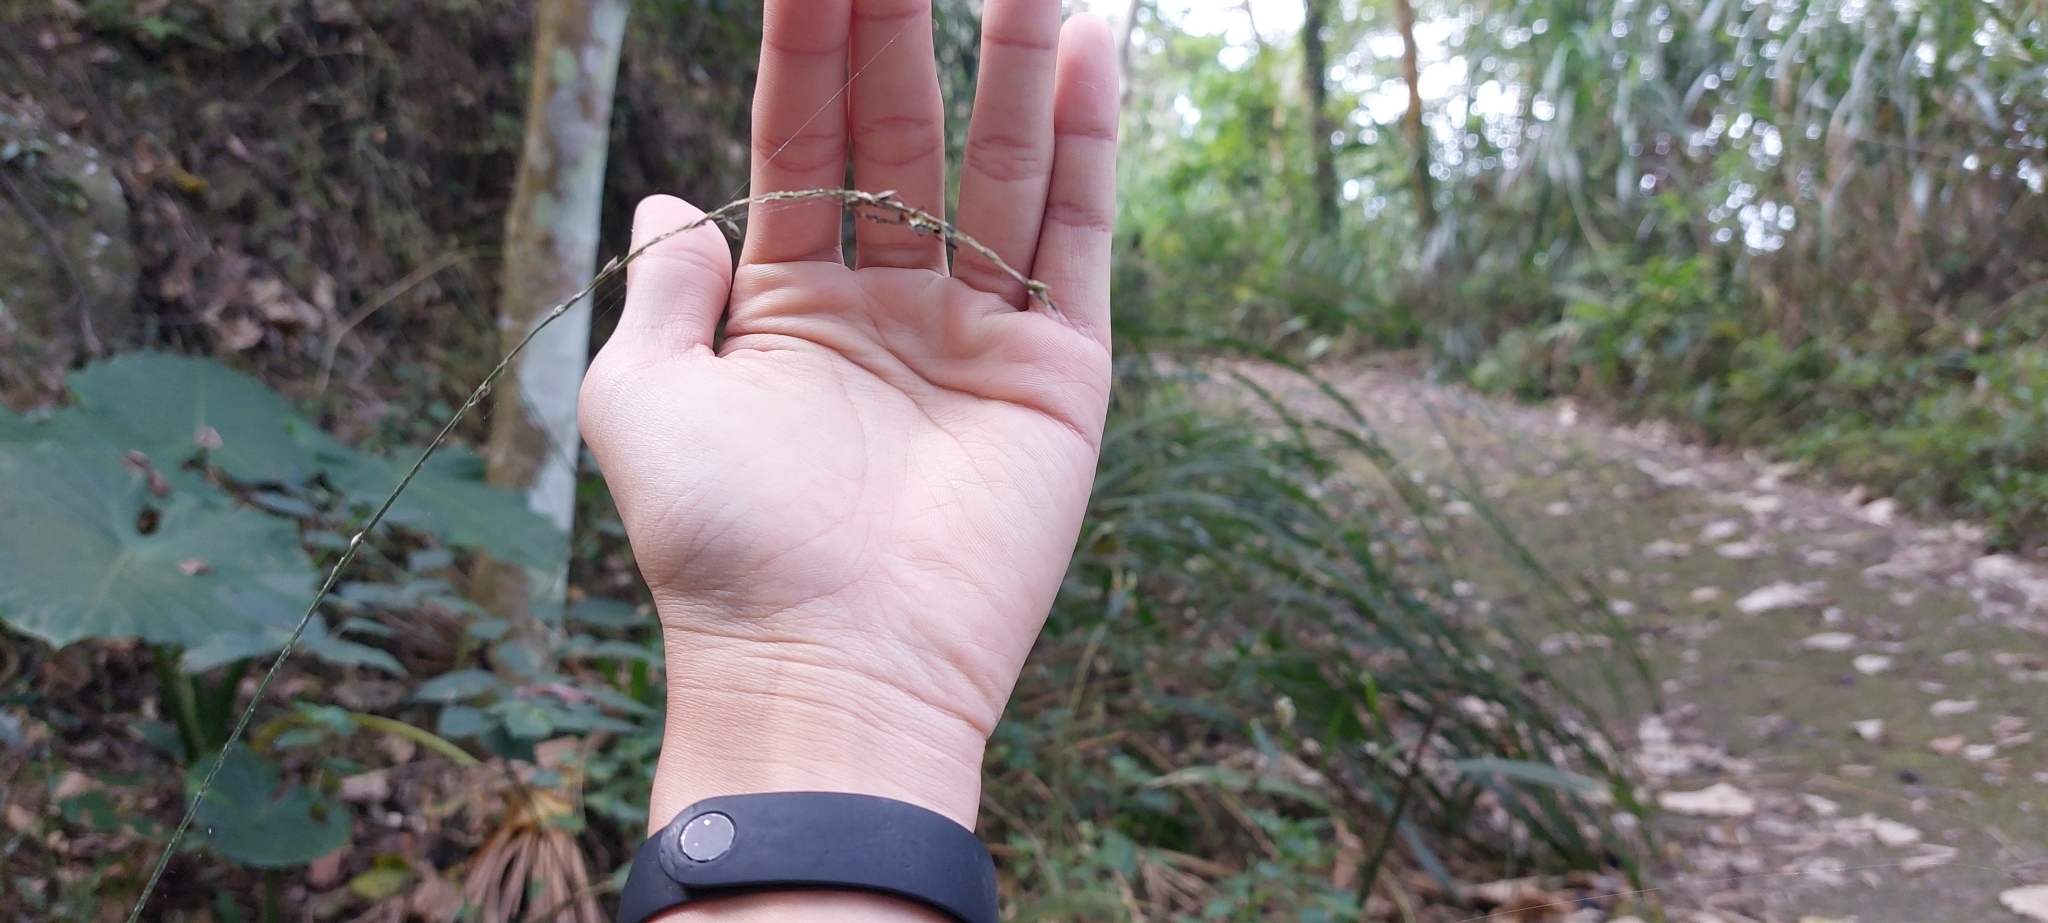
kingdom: Animalia
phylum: Arthropoda
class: Arachnida
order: Araneae
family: Tetragnathidae
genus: Leucauge
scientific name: Leucauge tessellata
